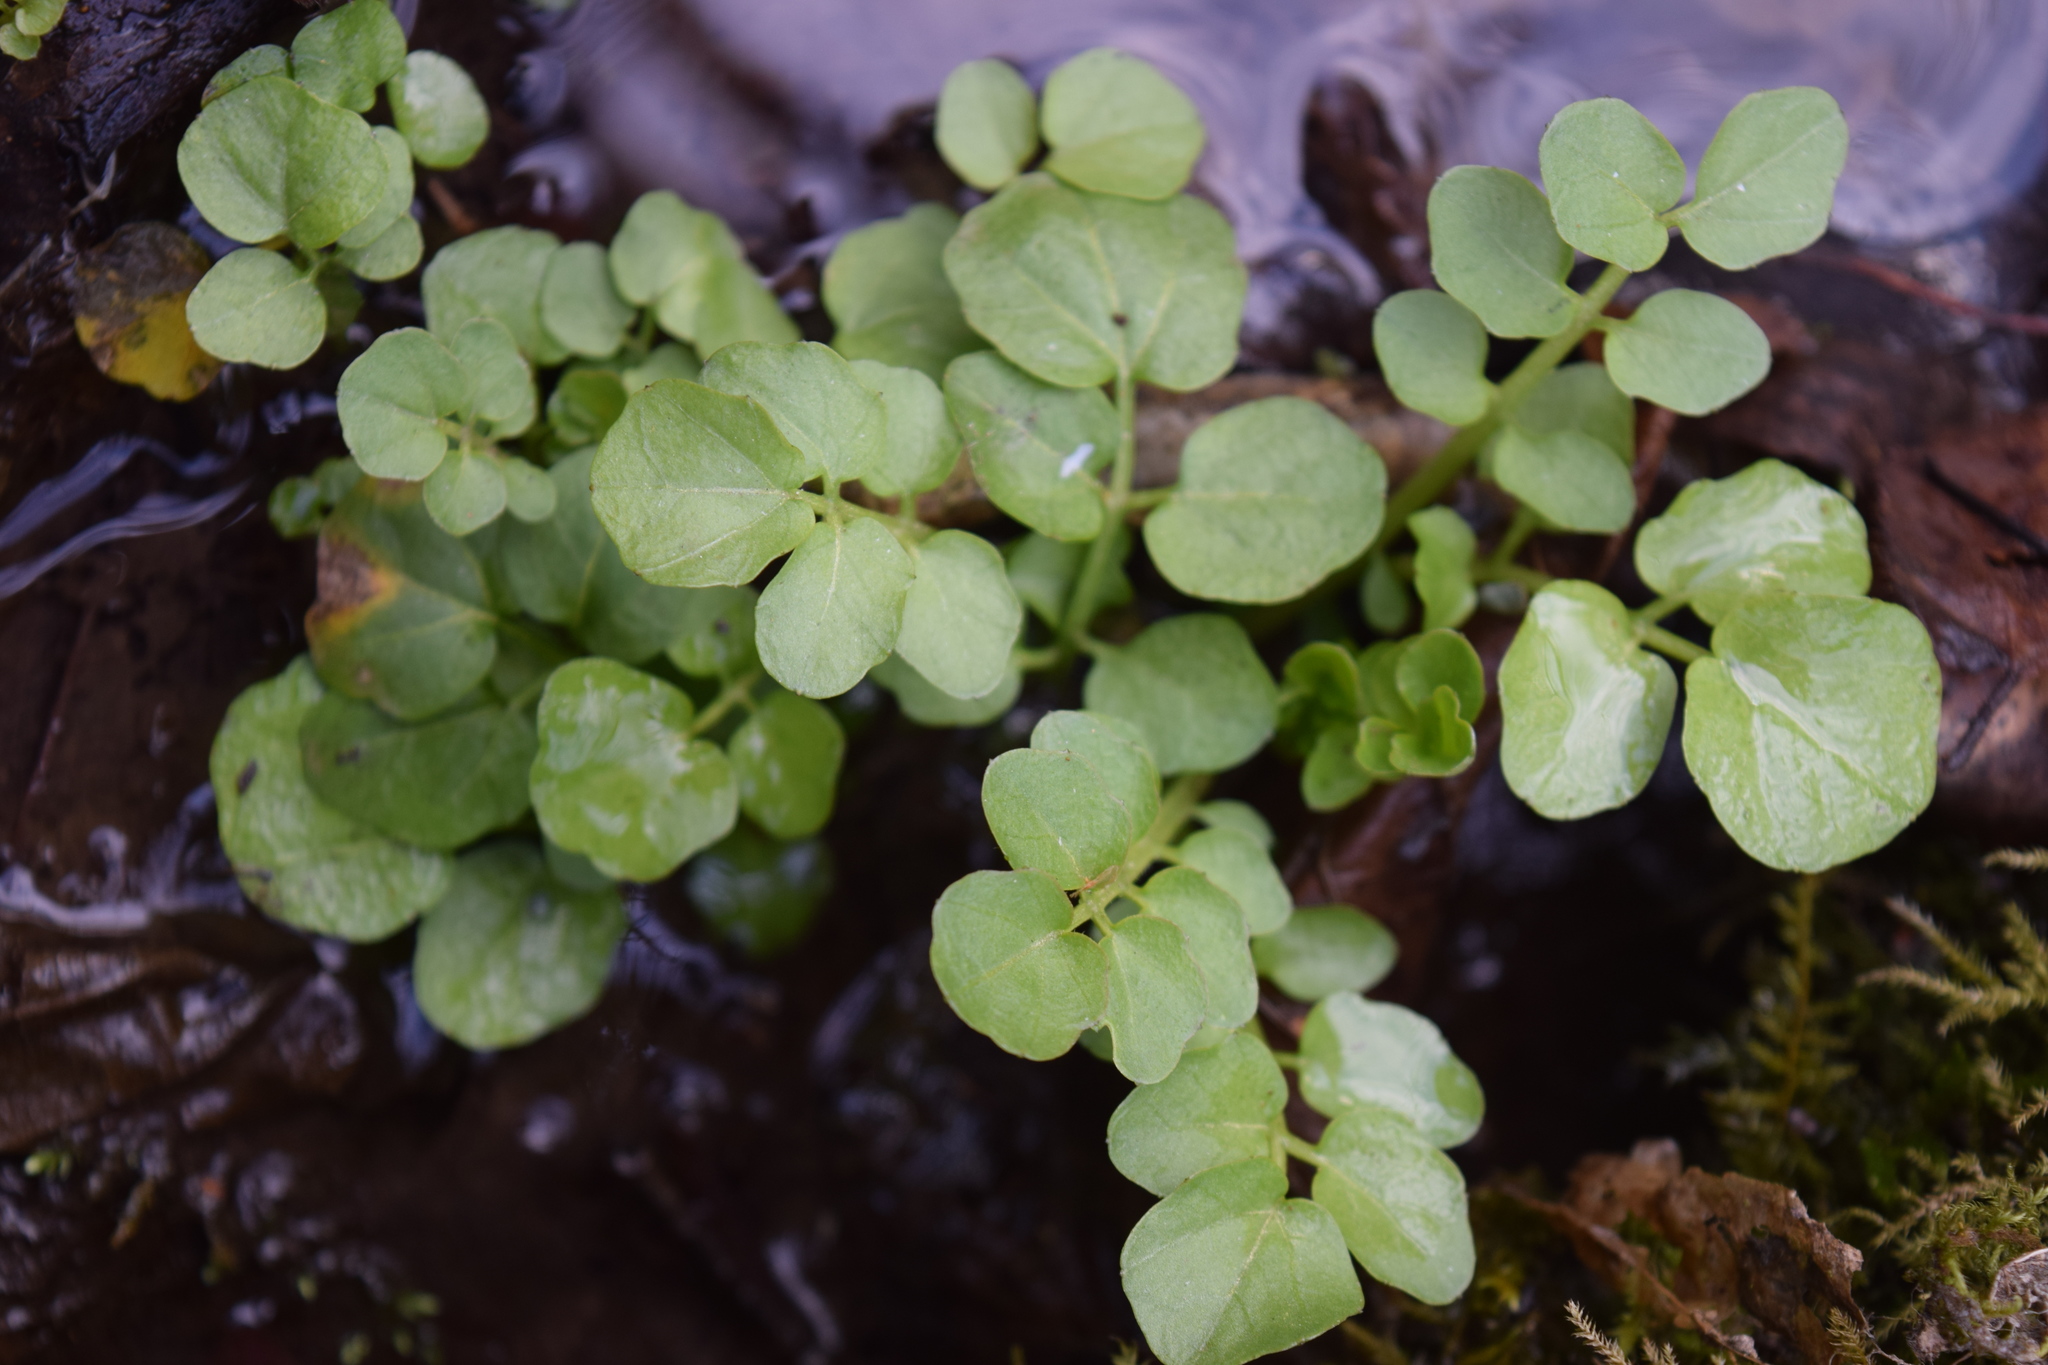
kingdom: Plantae
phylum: Tracheophyta
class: Magnoliopsida
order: Brassicales
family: Brassicaceae
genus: Cardamine
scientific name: Cardamine amara
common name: Large bitter-cress
